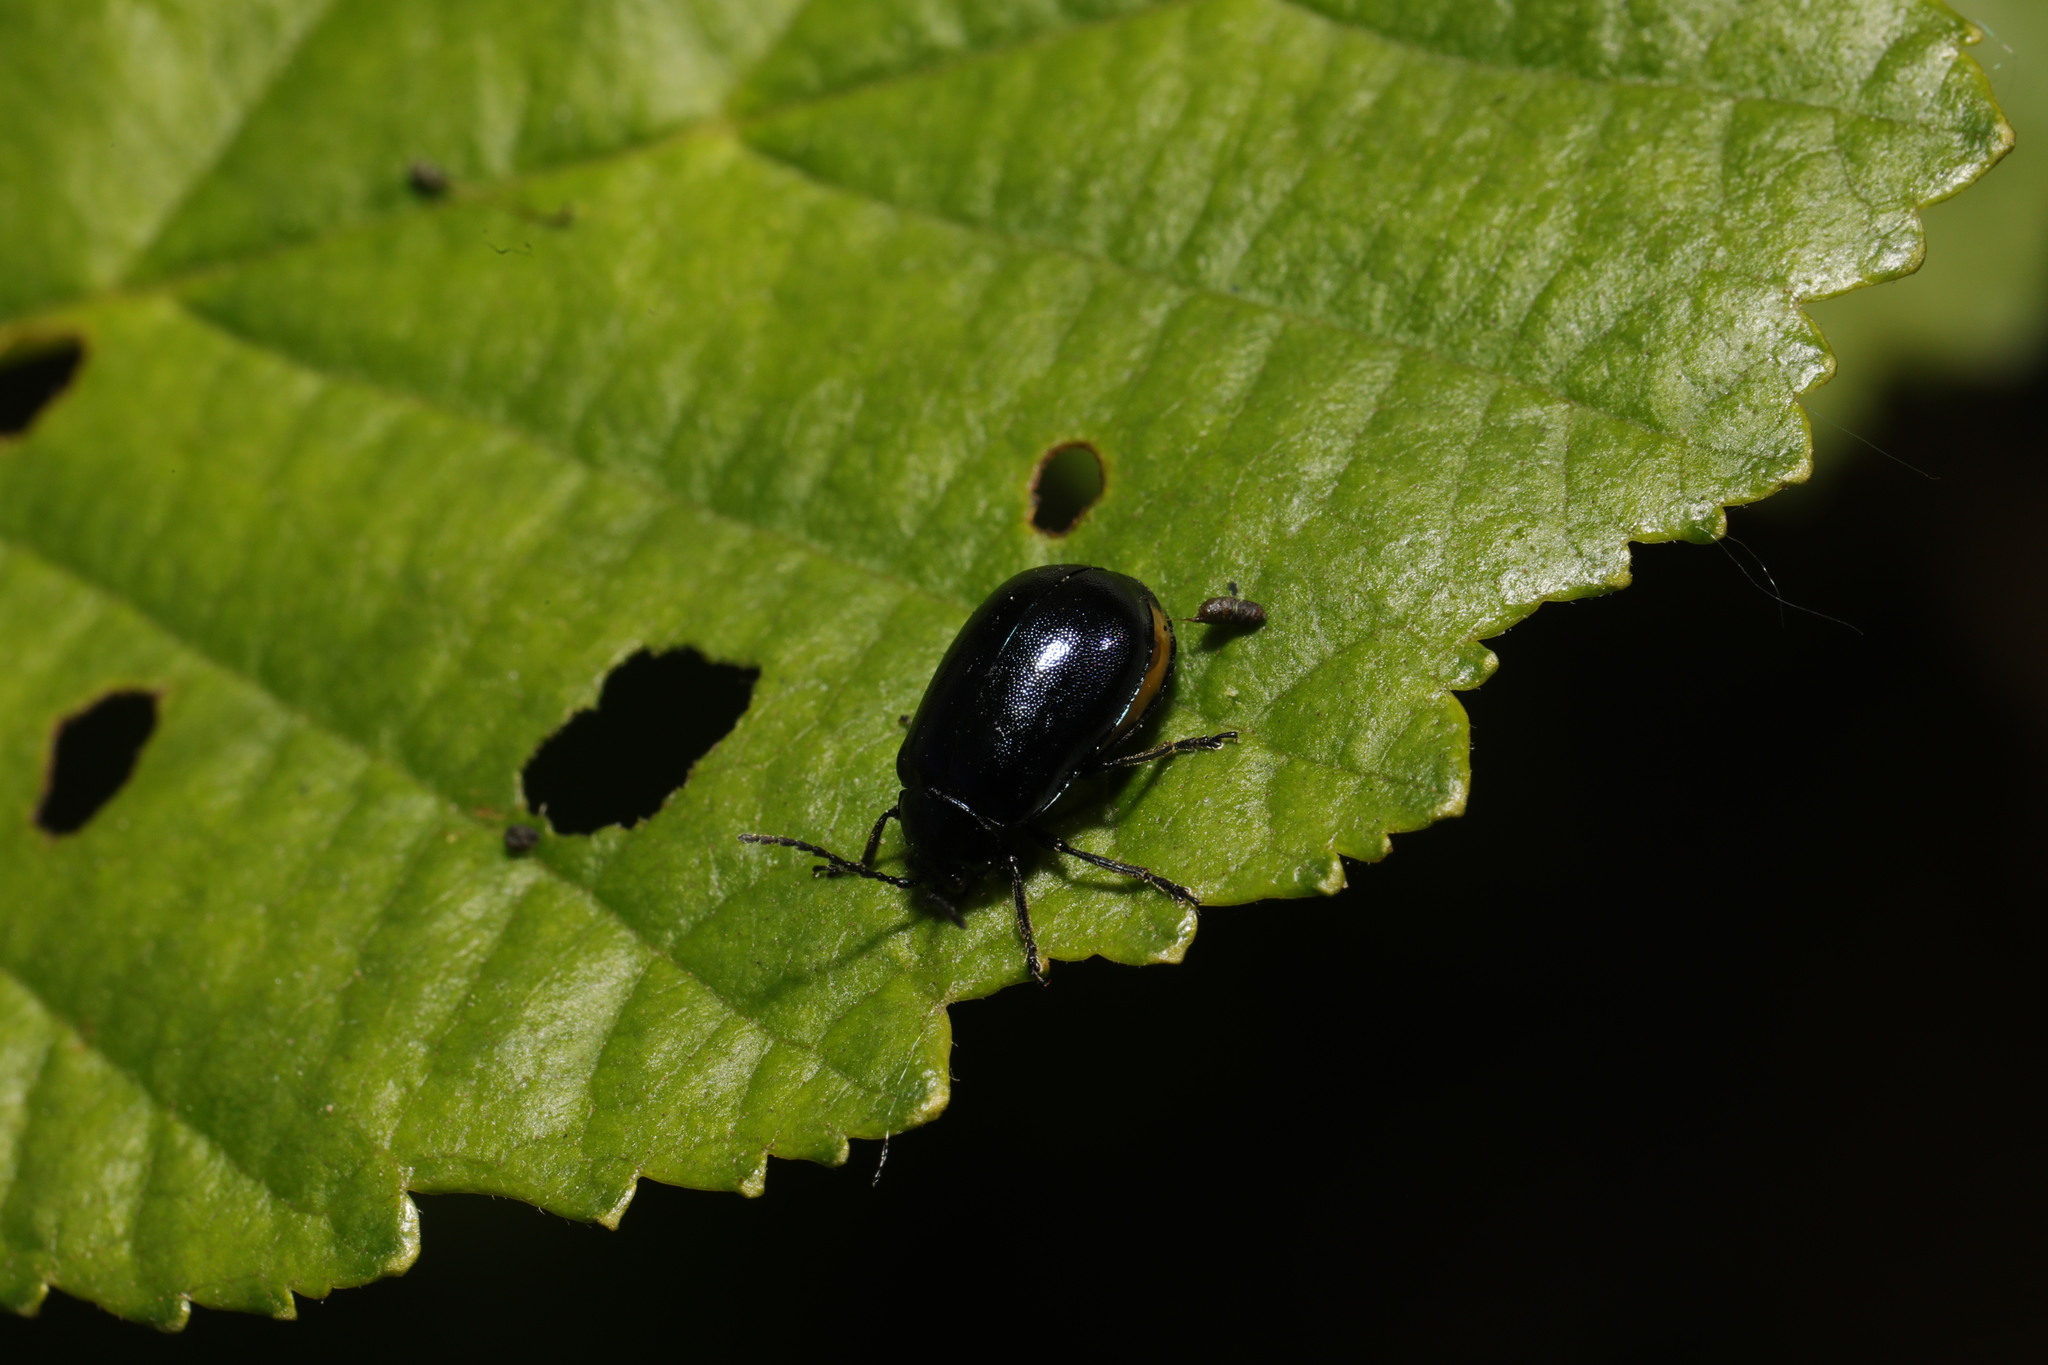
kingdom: Animalia
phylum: Arthropoda
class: Insecta
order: Coleoptera
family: Chrysomelidae
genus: Agelastica
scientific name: Agelastica alni
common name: Alder leaf beetle
